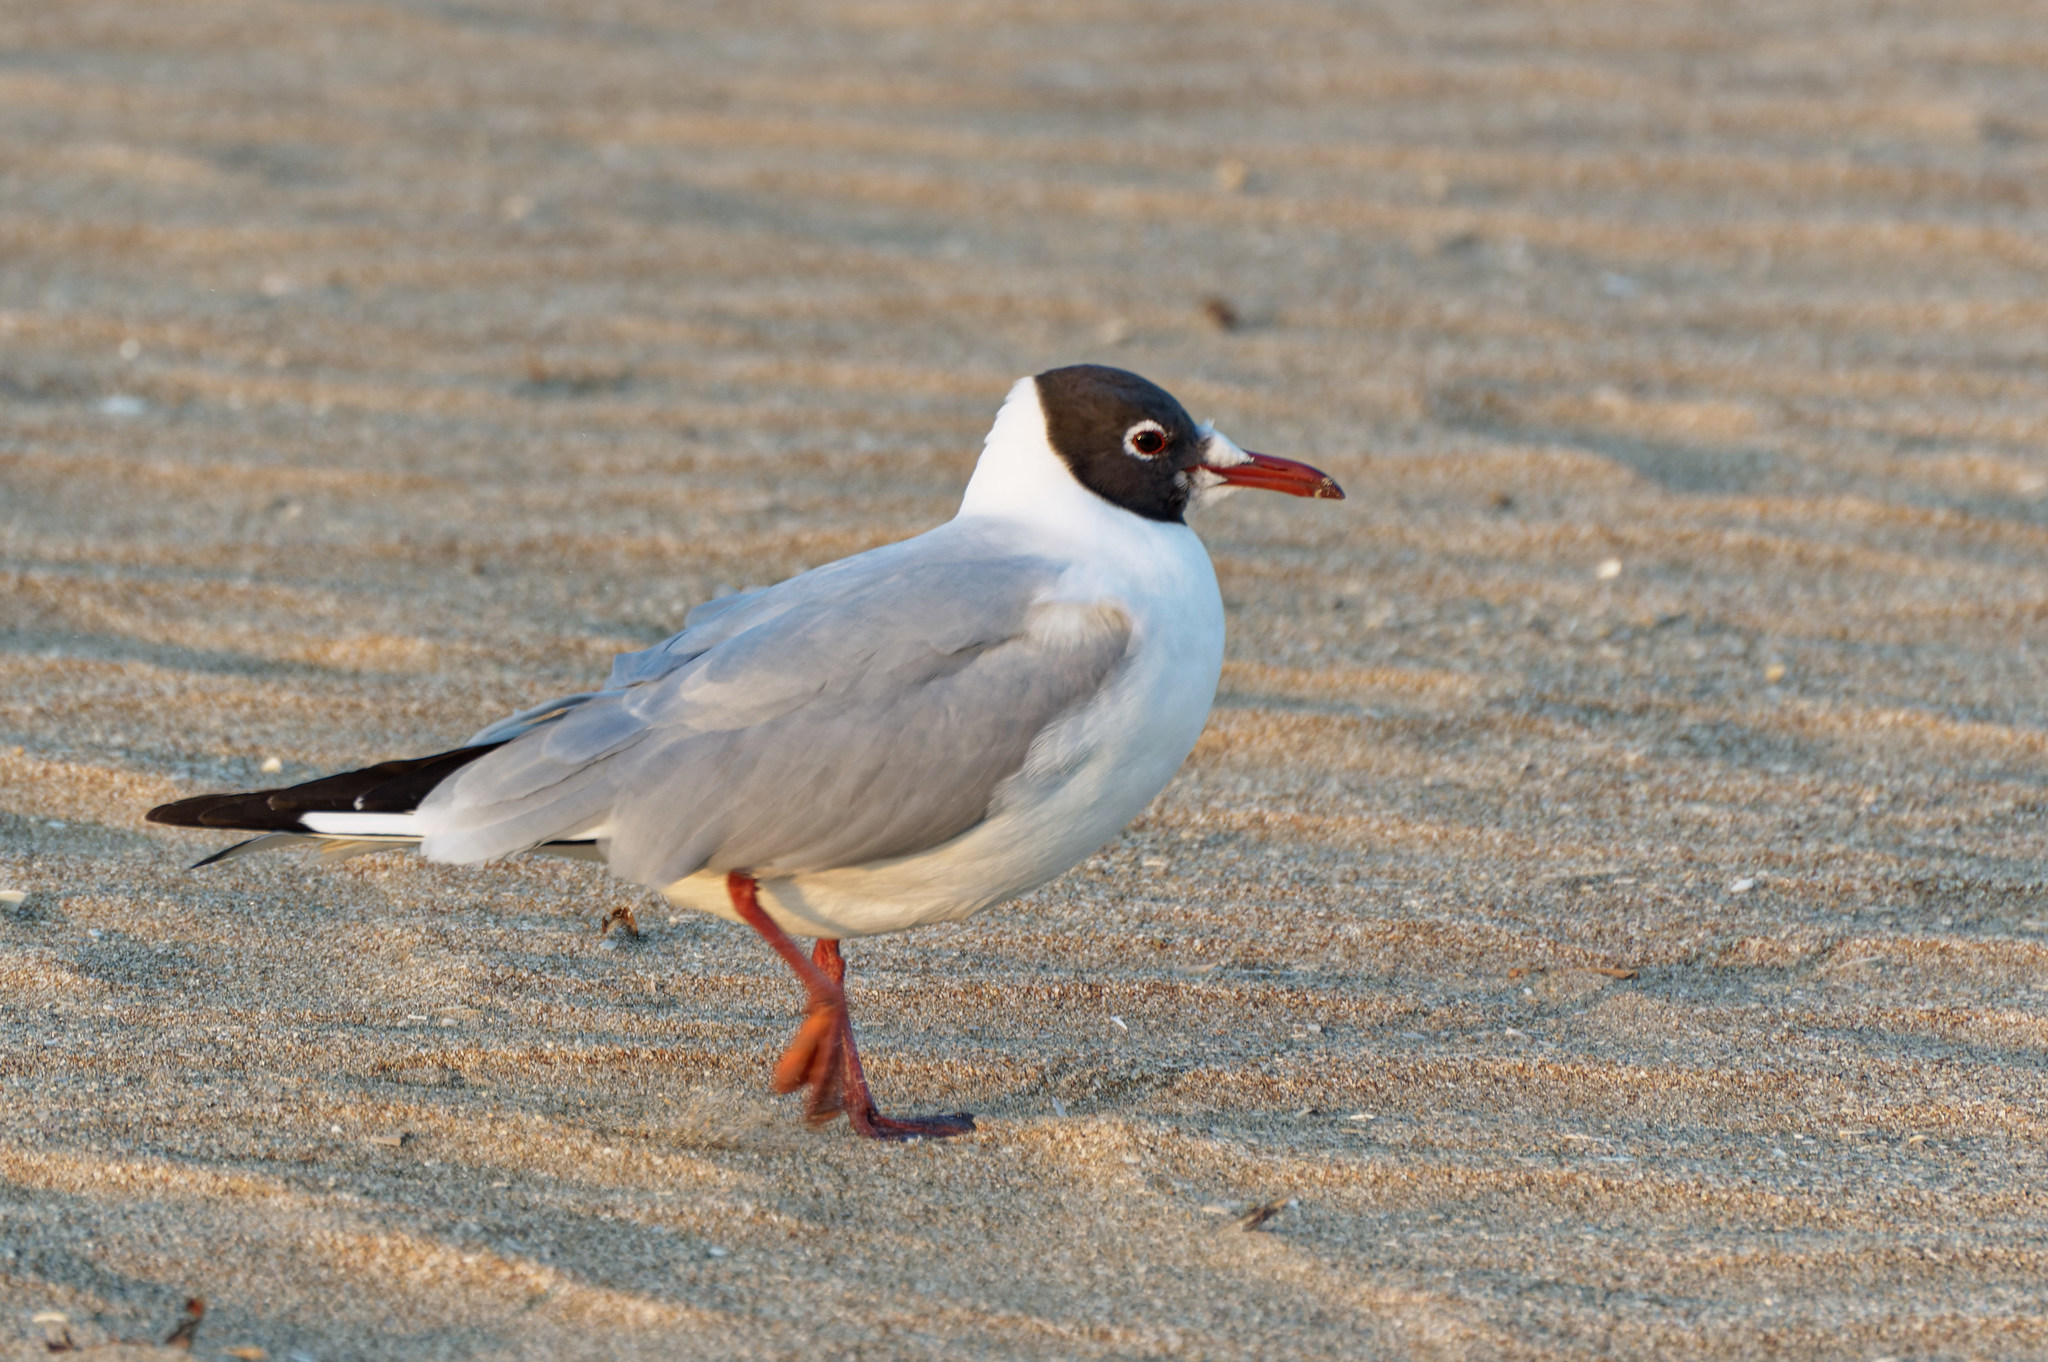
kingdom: Animalia
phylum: Chordata
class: Aves
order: Charadriiformes
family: Laridae
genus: Chroicocephalus
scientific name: Chroicocephalus ridibundus
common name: Black-headed gull
